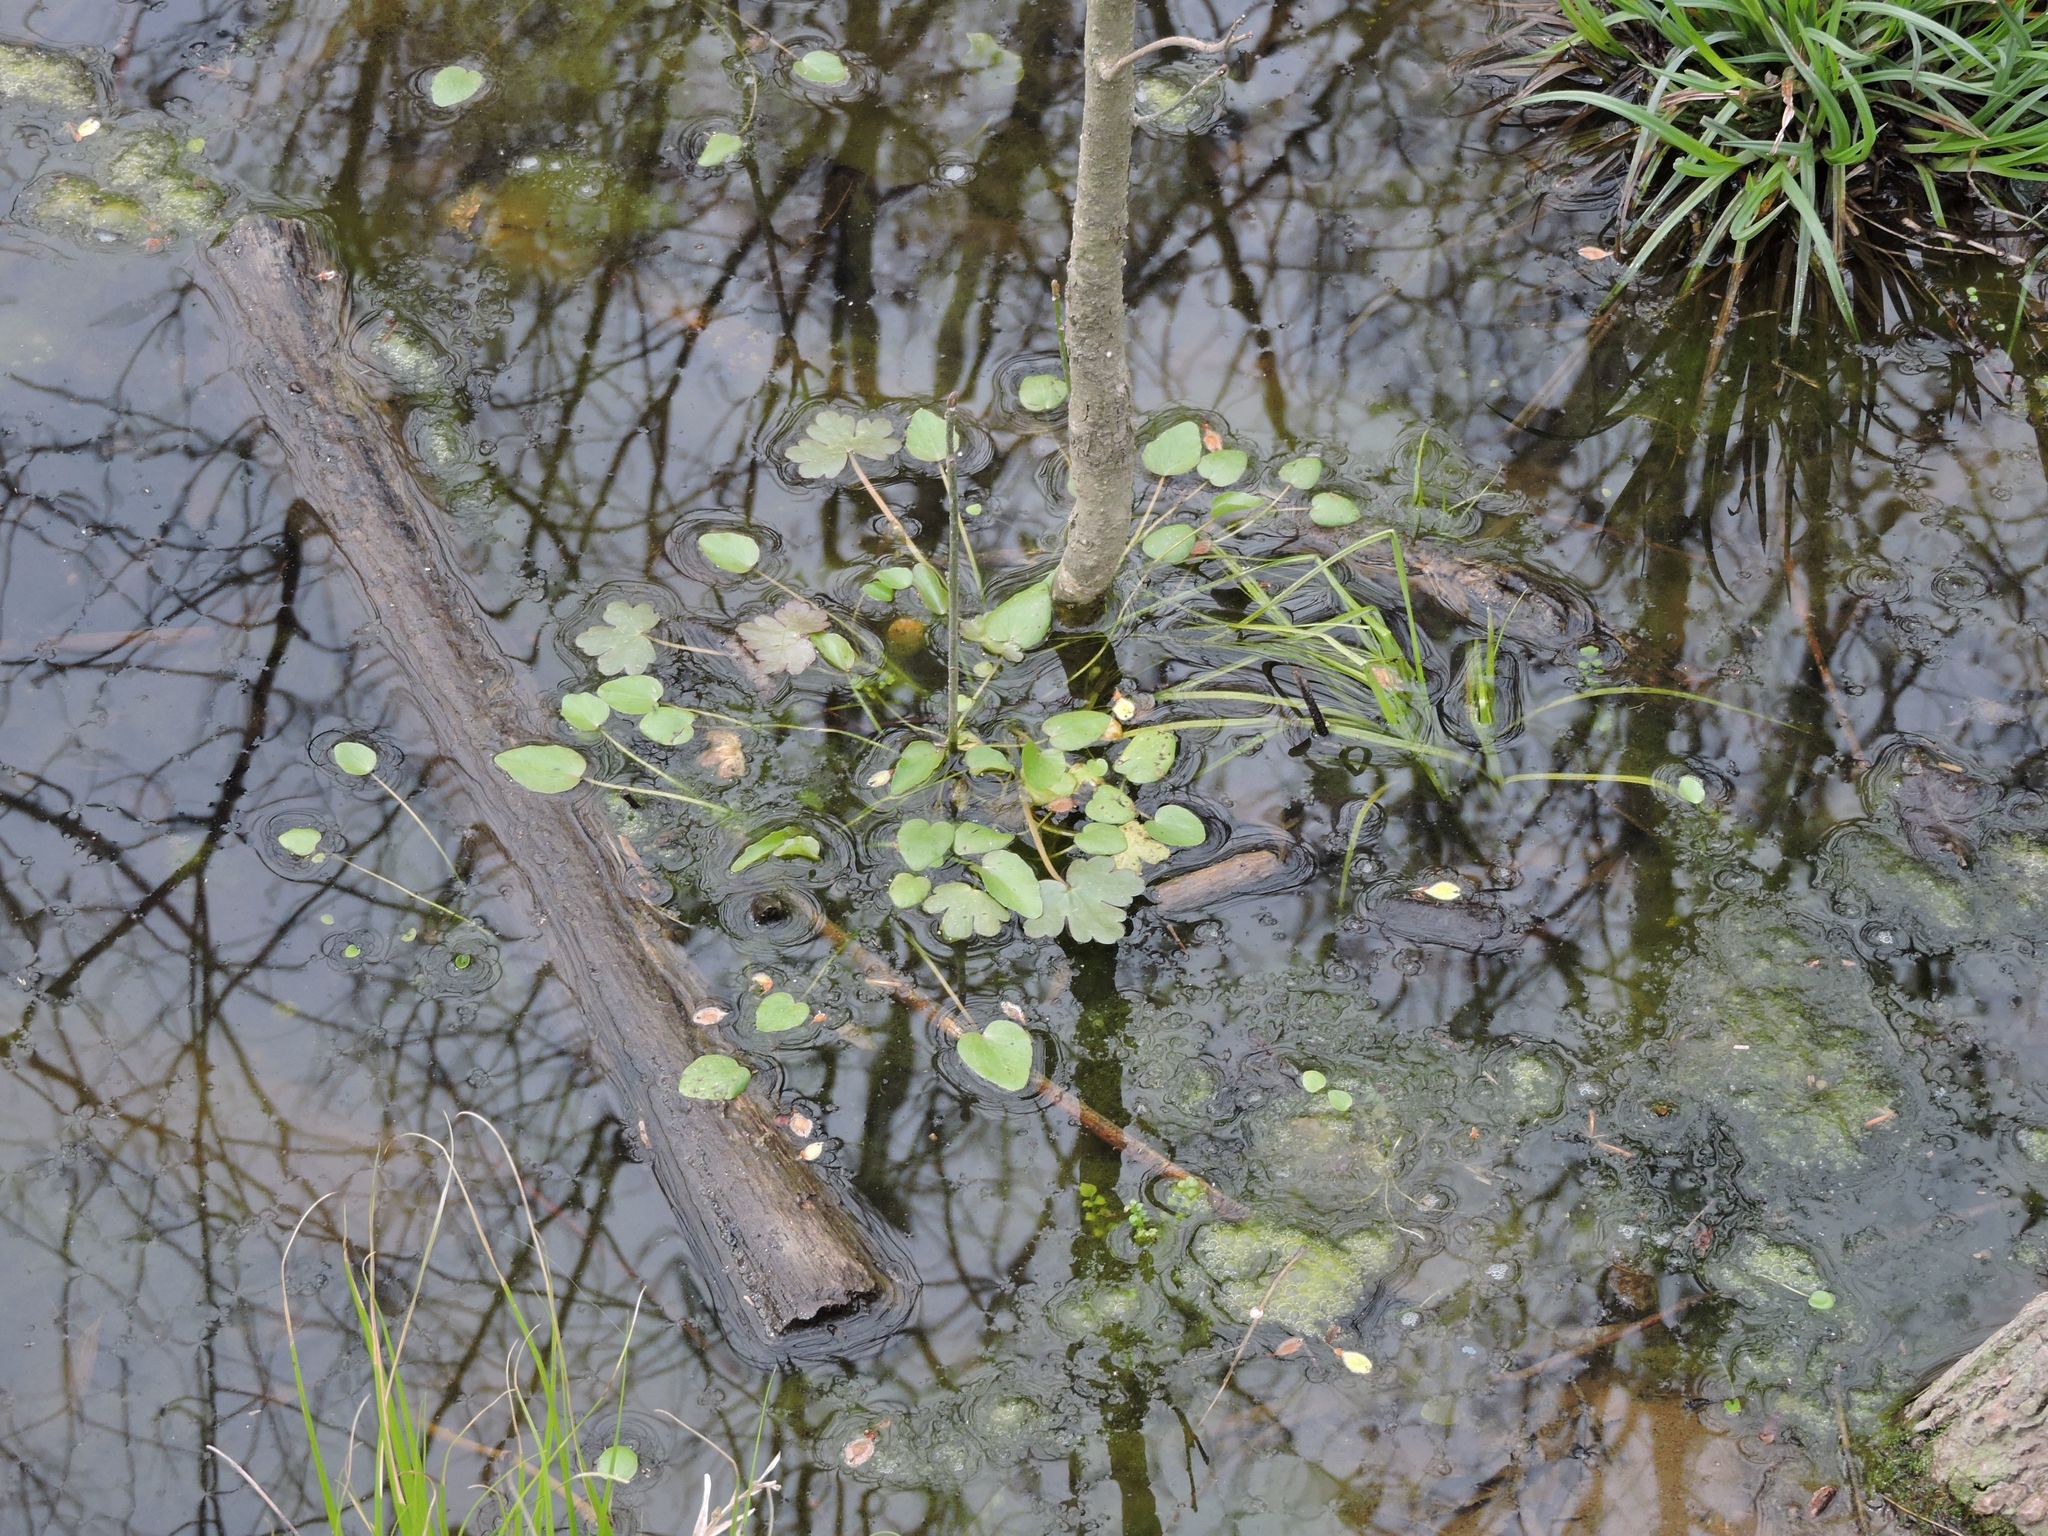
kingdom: Plantae
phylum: Tracheophyta
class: Magnoliopsida
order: Apiales
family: Araliaceae
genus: Hydrocotyle
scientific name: Hydrocotyle ranunculoides
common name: Floating pennywort
